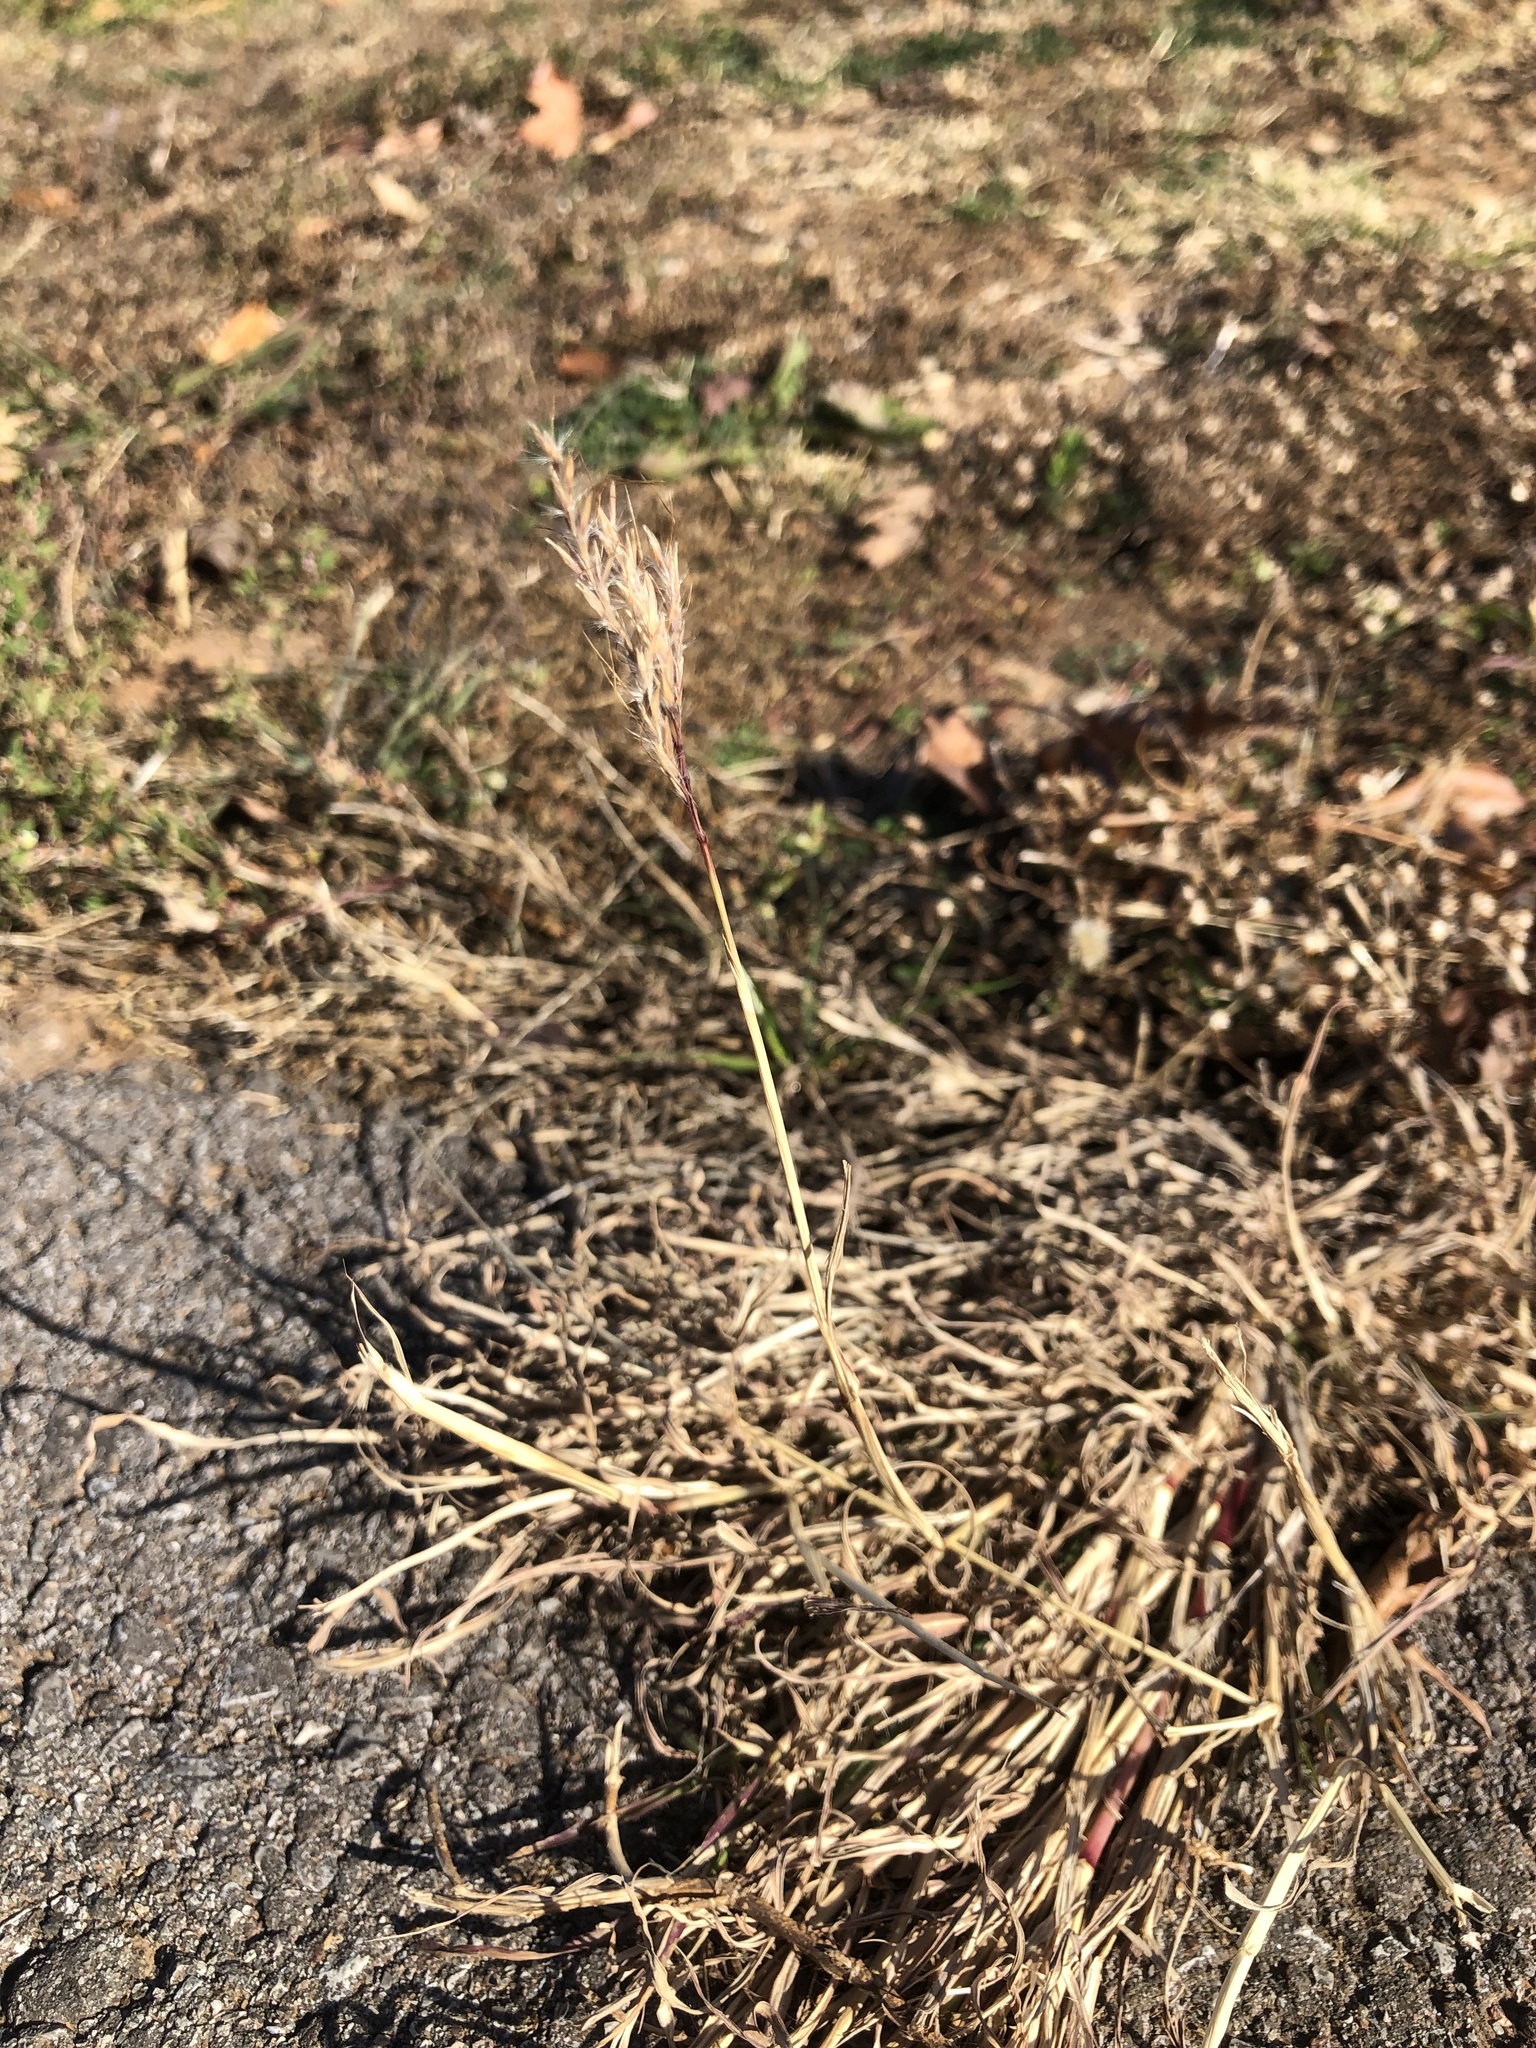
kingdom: Plantae
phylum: Tracheophyta
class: Liliopsida
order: Poales
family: Poaceae
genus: Bothriochloa
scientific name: Bothriochloa ischaemum
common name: Yellow bluestem
